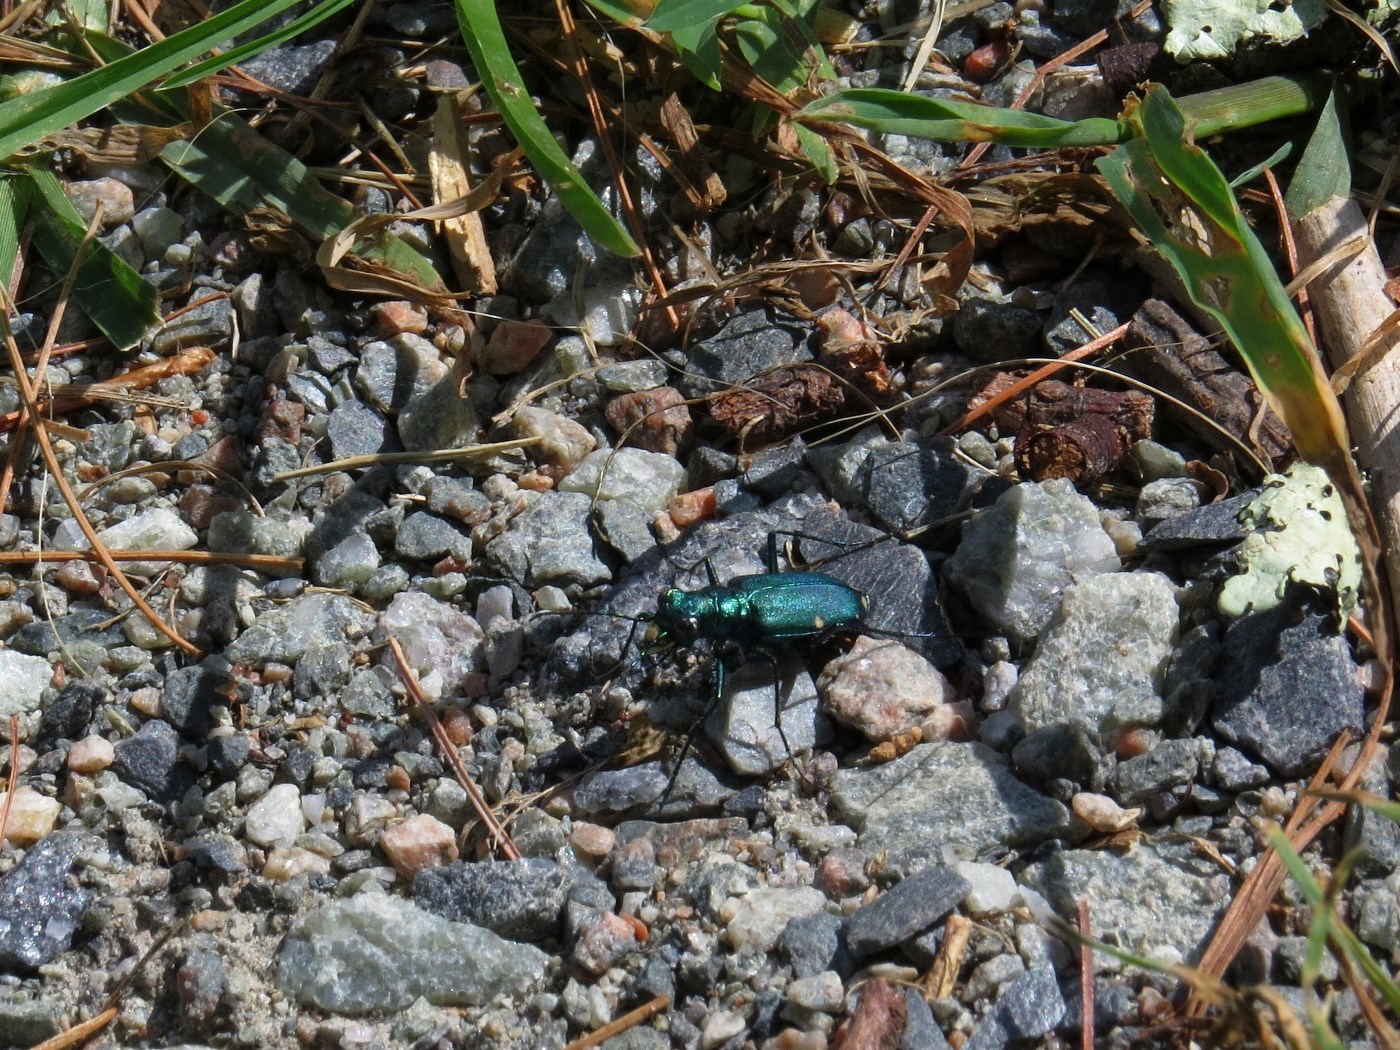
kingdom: Animalia
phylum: Arthropoda
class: Insecta
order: Coleoptera
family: Carabidae
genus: Cicindela
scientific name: Cicindela sexguttata
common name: Six-spotted tiger beetle
